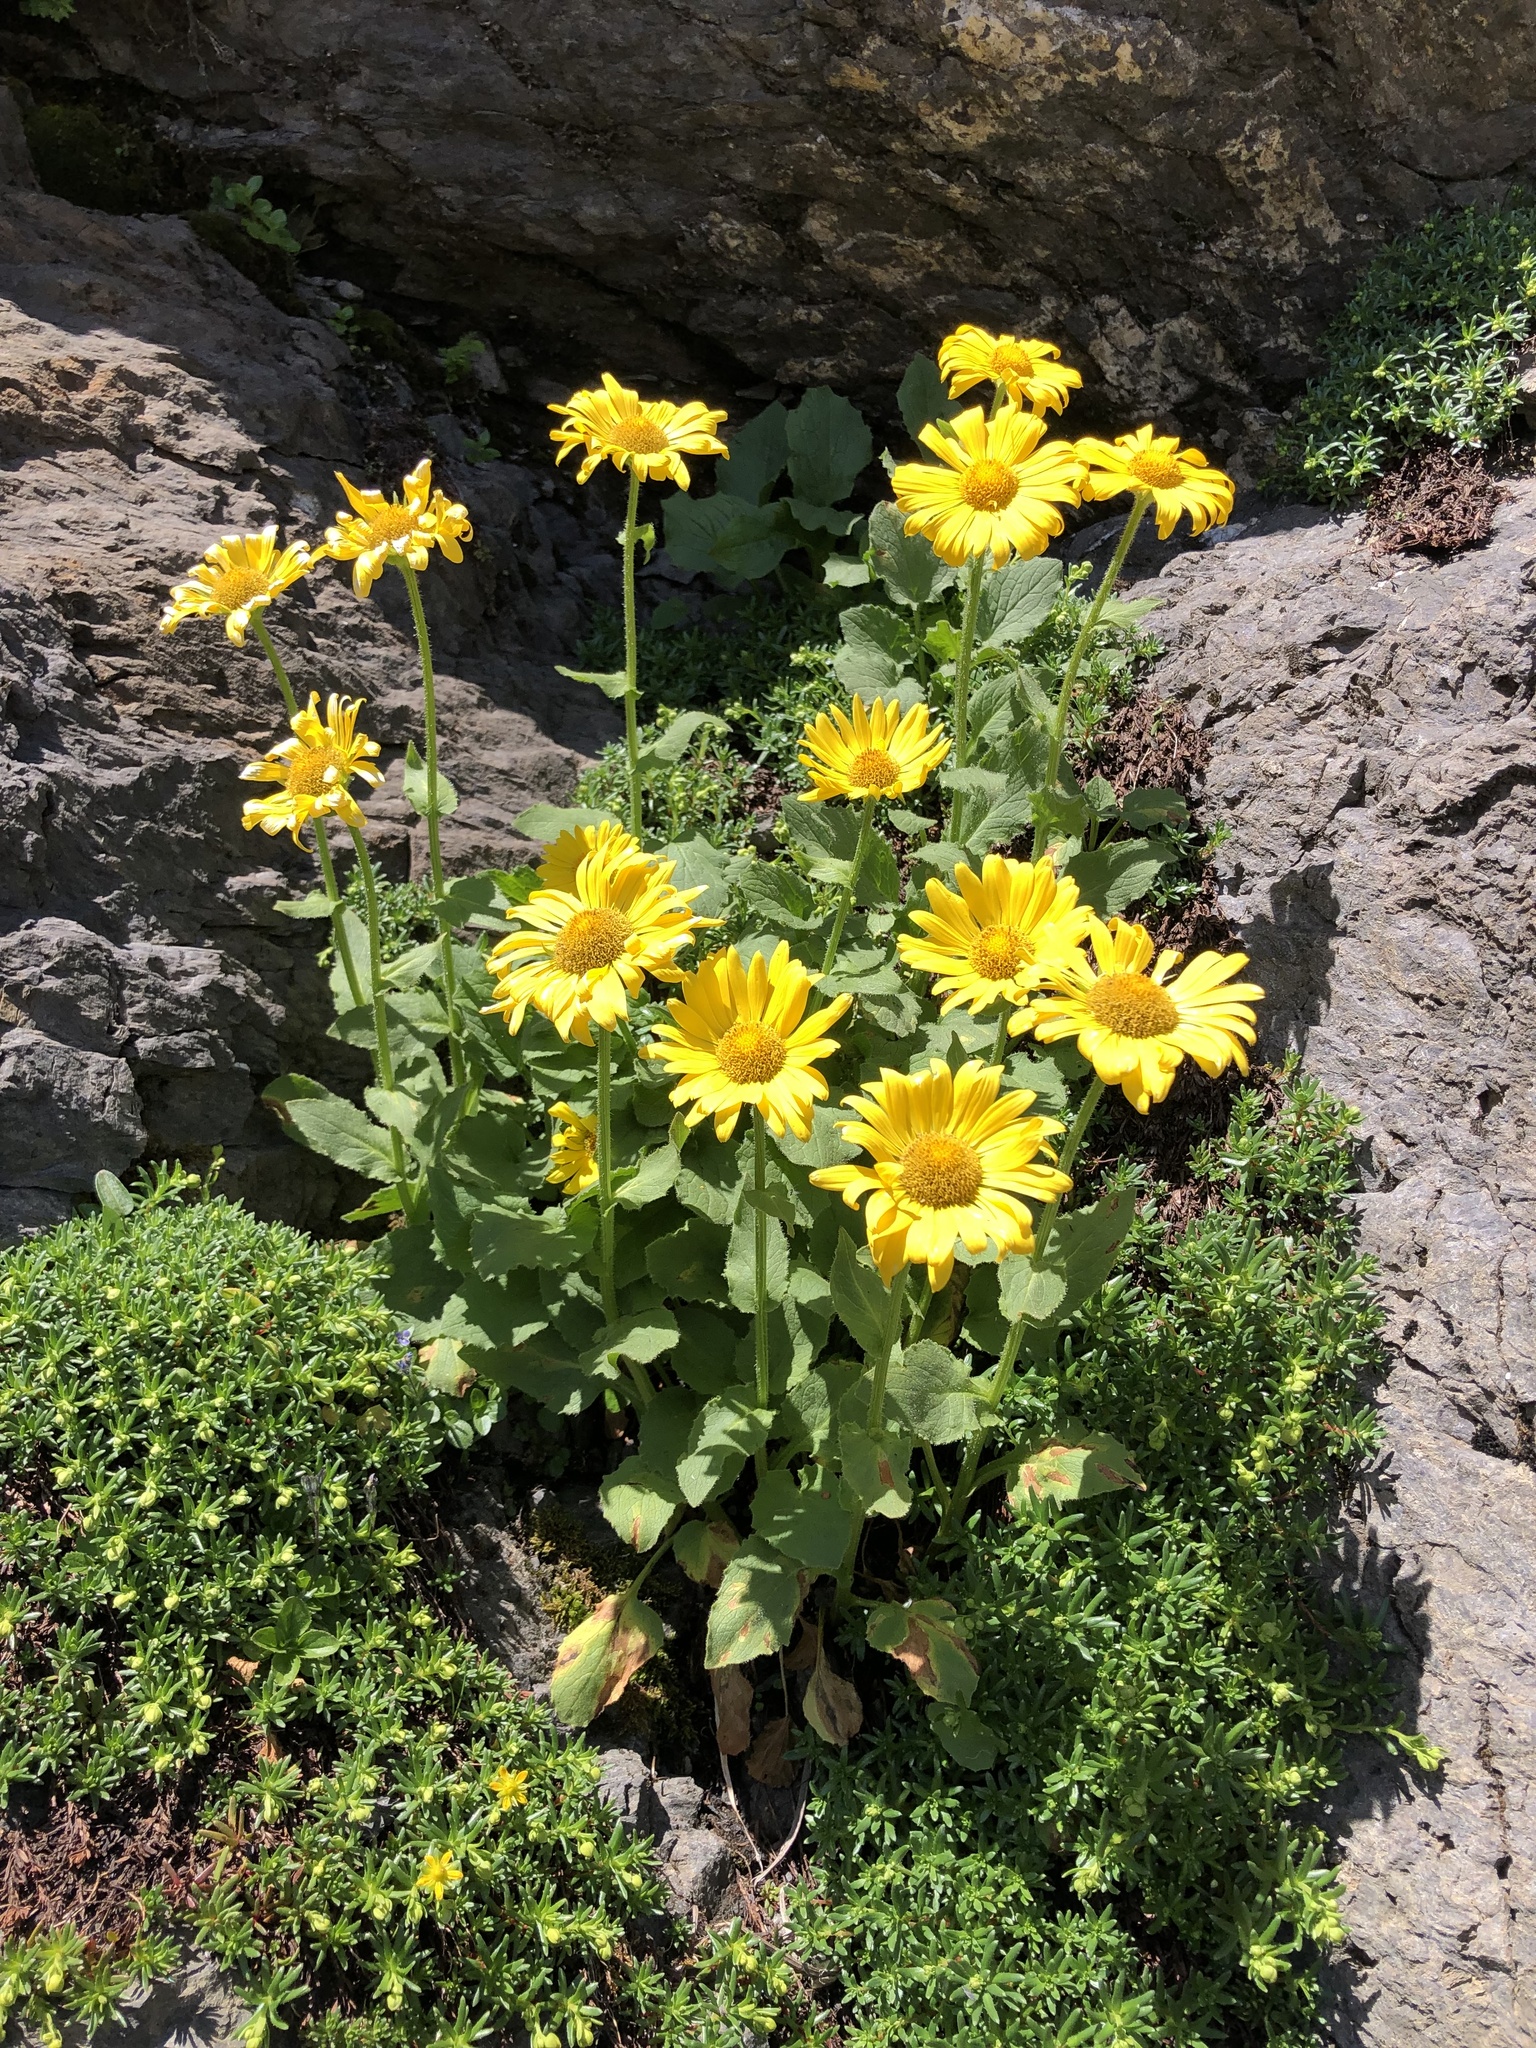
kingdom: Plantae
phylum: Tracheophyta
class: Magnoliopsida
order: Asterales
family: Asteraceae
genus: Doronicum
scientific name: Doronicum grandiflorum
